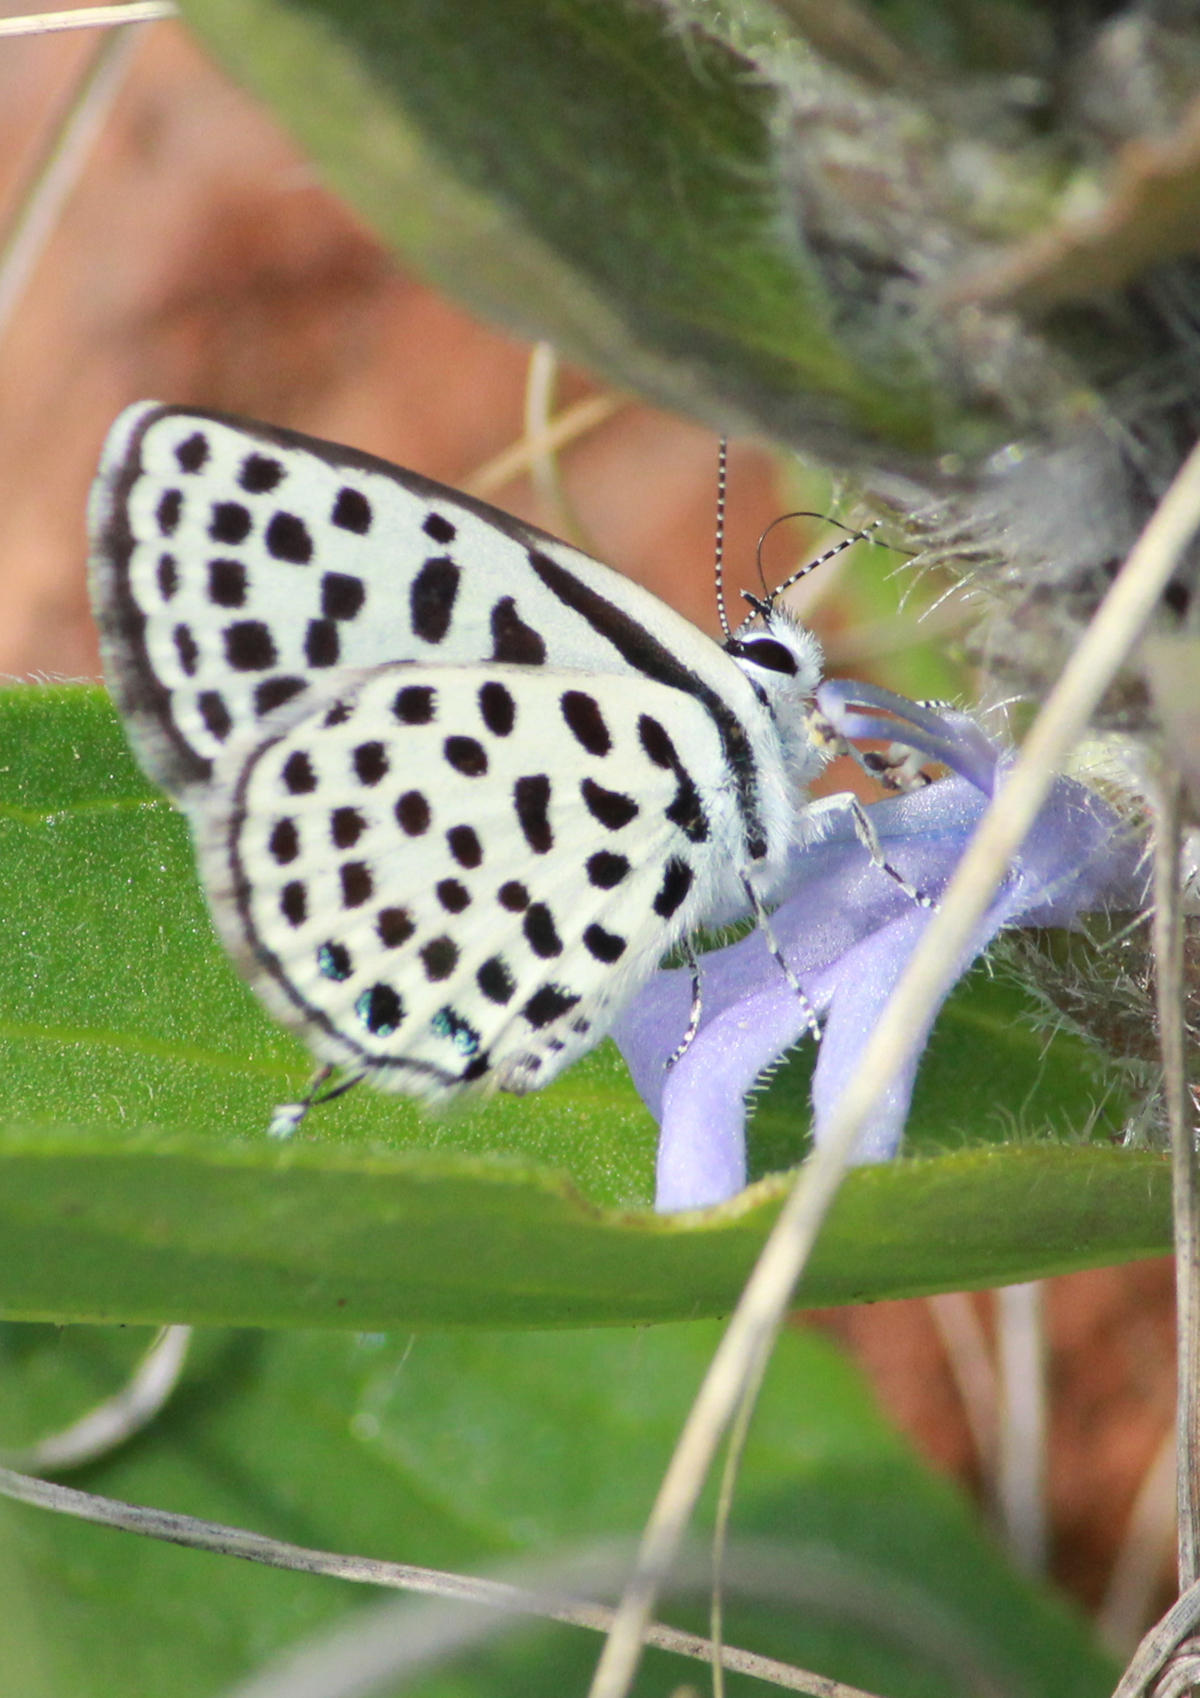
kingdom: Animalia
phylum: Arthropoda
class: Insecta
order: Lepidoptera
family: Lycaenidae
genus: Tarucus
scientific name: Tarucus sybaris
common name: Dotted blue
